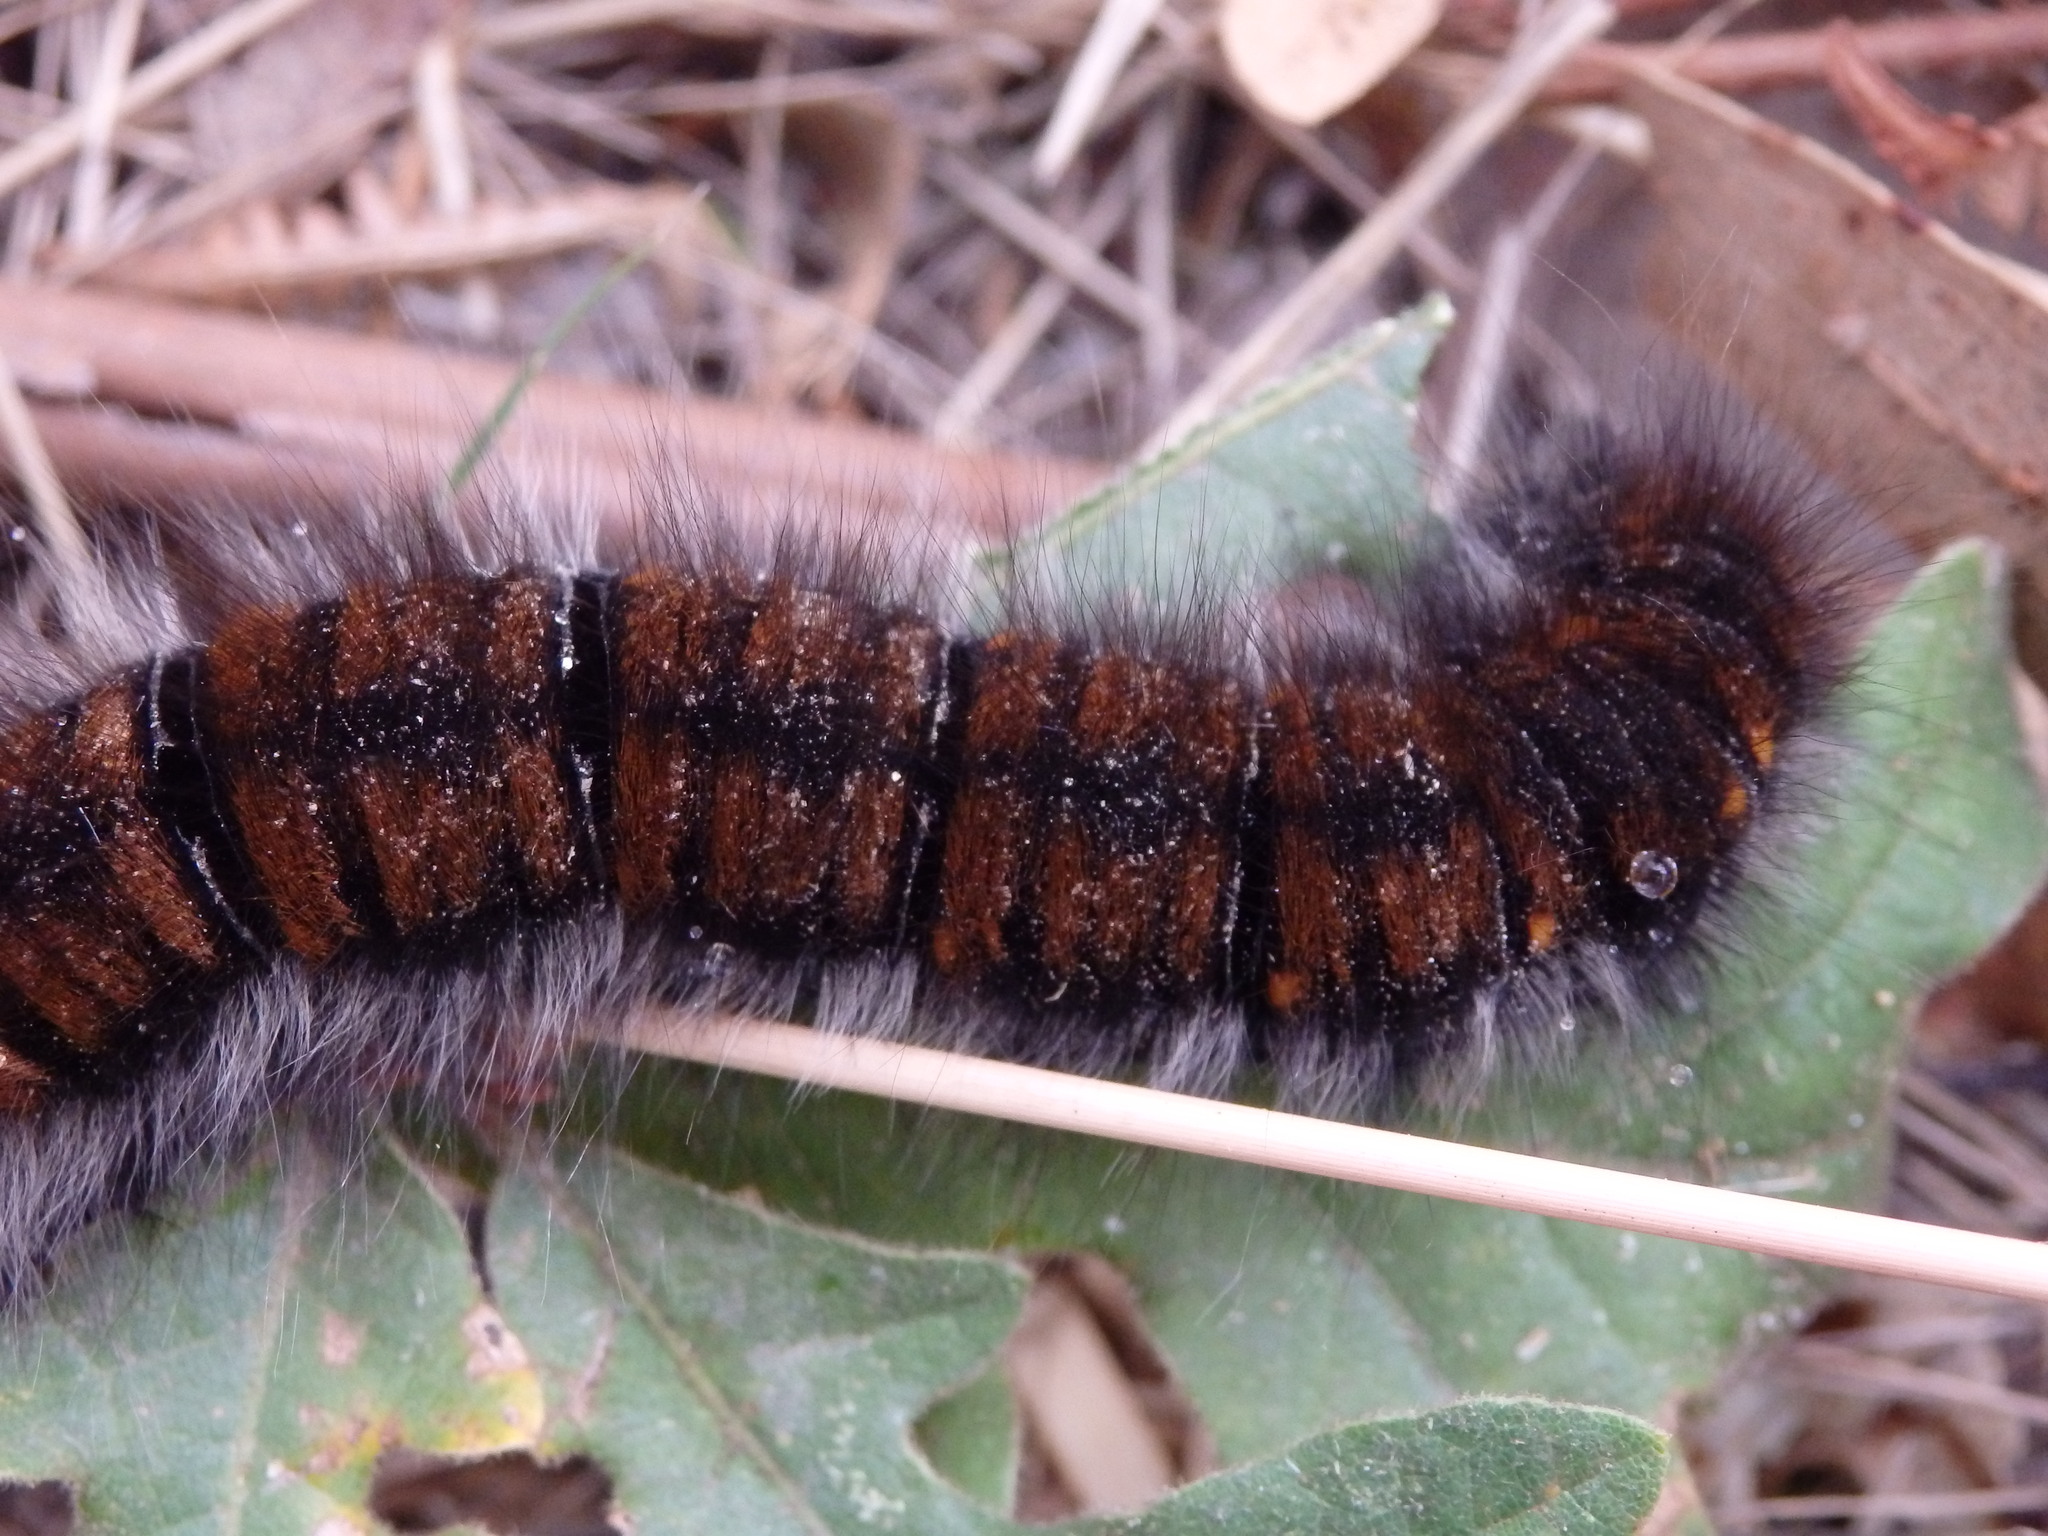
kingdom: Animalia
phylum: Arthropoda
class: Insecta
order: Lepidoptera
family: Lasiocampidae
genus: Macrothylacia
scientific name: Macrothylacia rubi
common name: Fox moth
